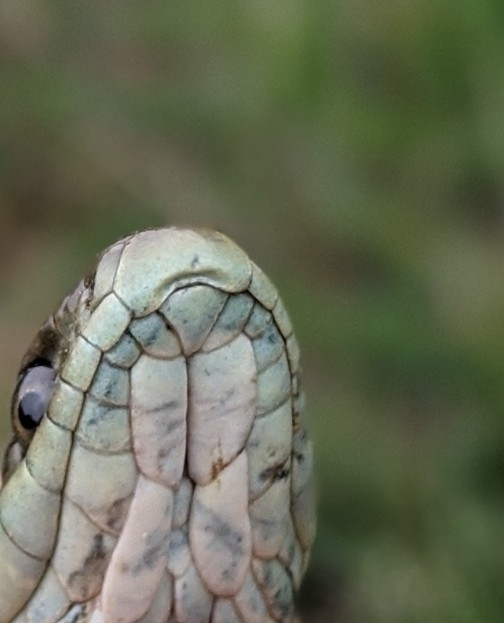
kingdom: Animalia
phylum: Chordata
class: Squamata
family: Colubridae
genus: Thamnophis
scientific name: Thamnophis elegans
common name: Western terrestrial garter snake
